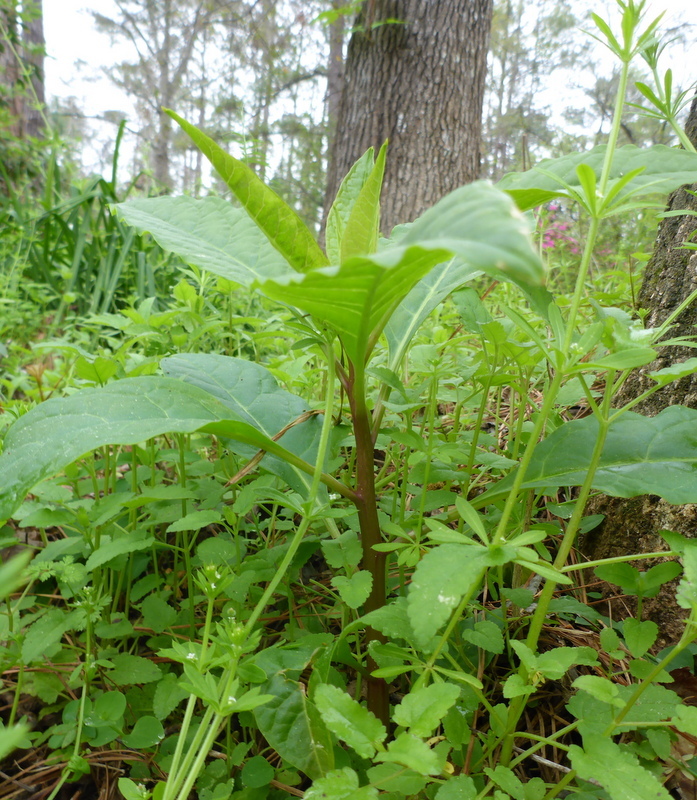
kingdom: Plantae
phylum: Tracheophyta
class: Magnoliopsida
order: Caryophyllales
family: Phytolaccaceae
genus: Phytolacca
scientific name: Phytolacca americana
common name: American pokeweed
